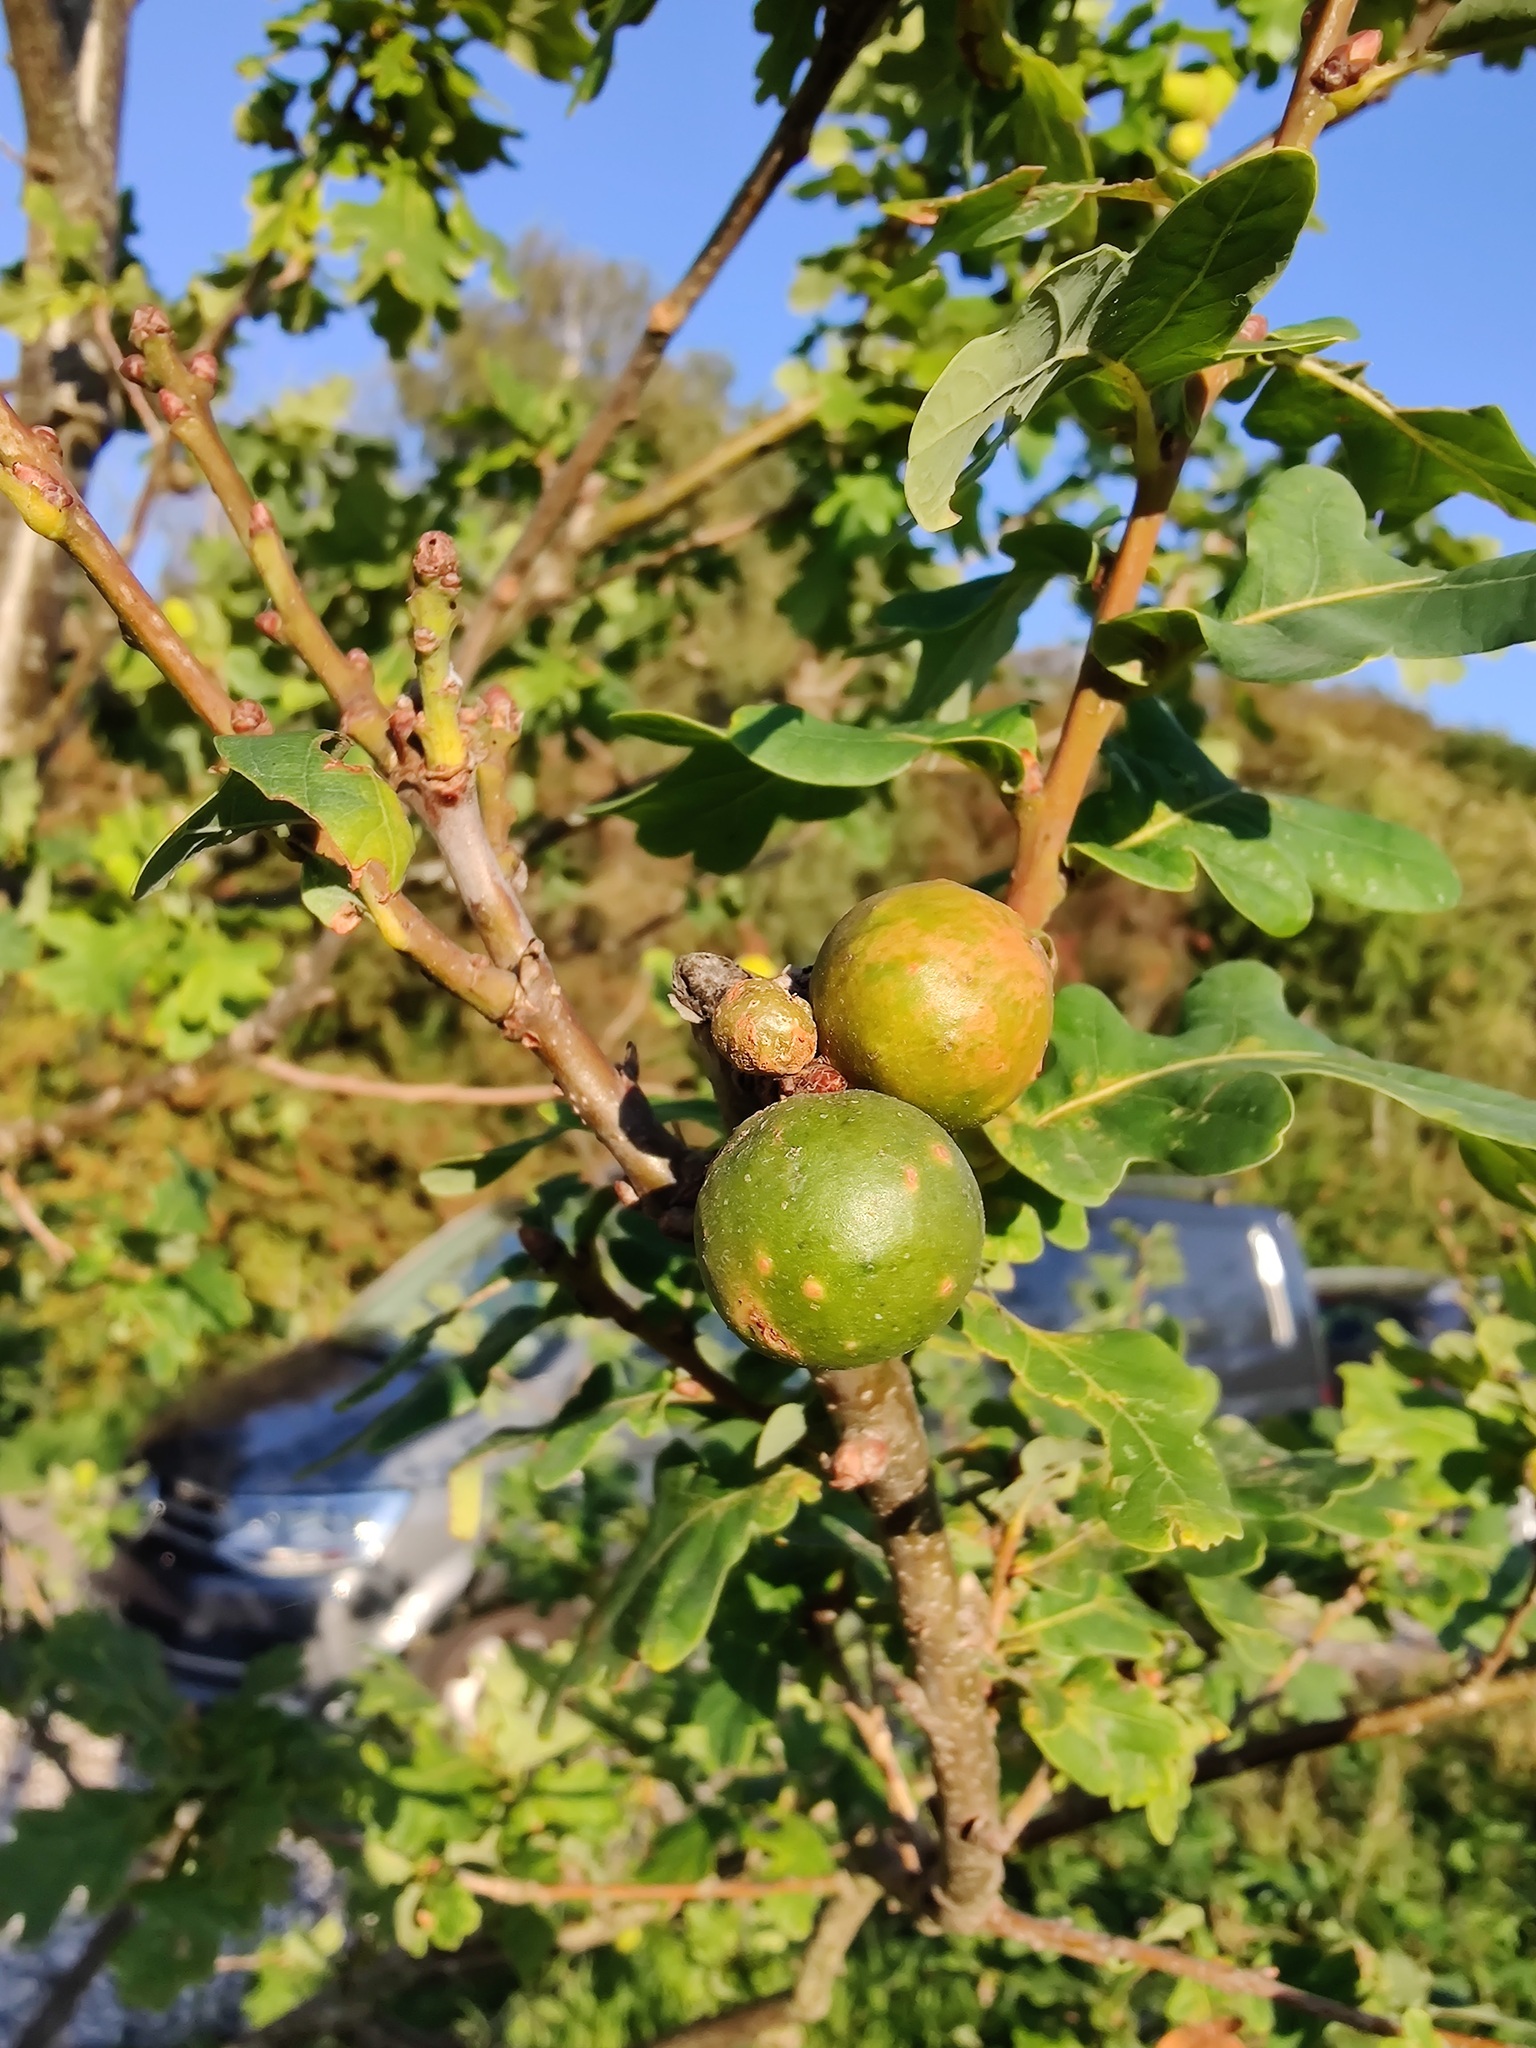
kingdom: Animalia
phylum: Arthropoda
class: Insecta
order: Hymenoptera
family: Cynipidae
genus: Andricus
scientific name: Andricus kollari
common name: Marble gall
